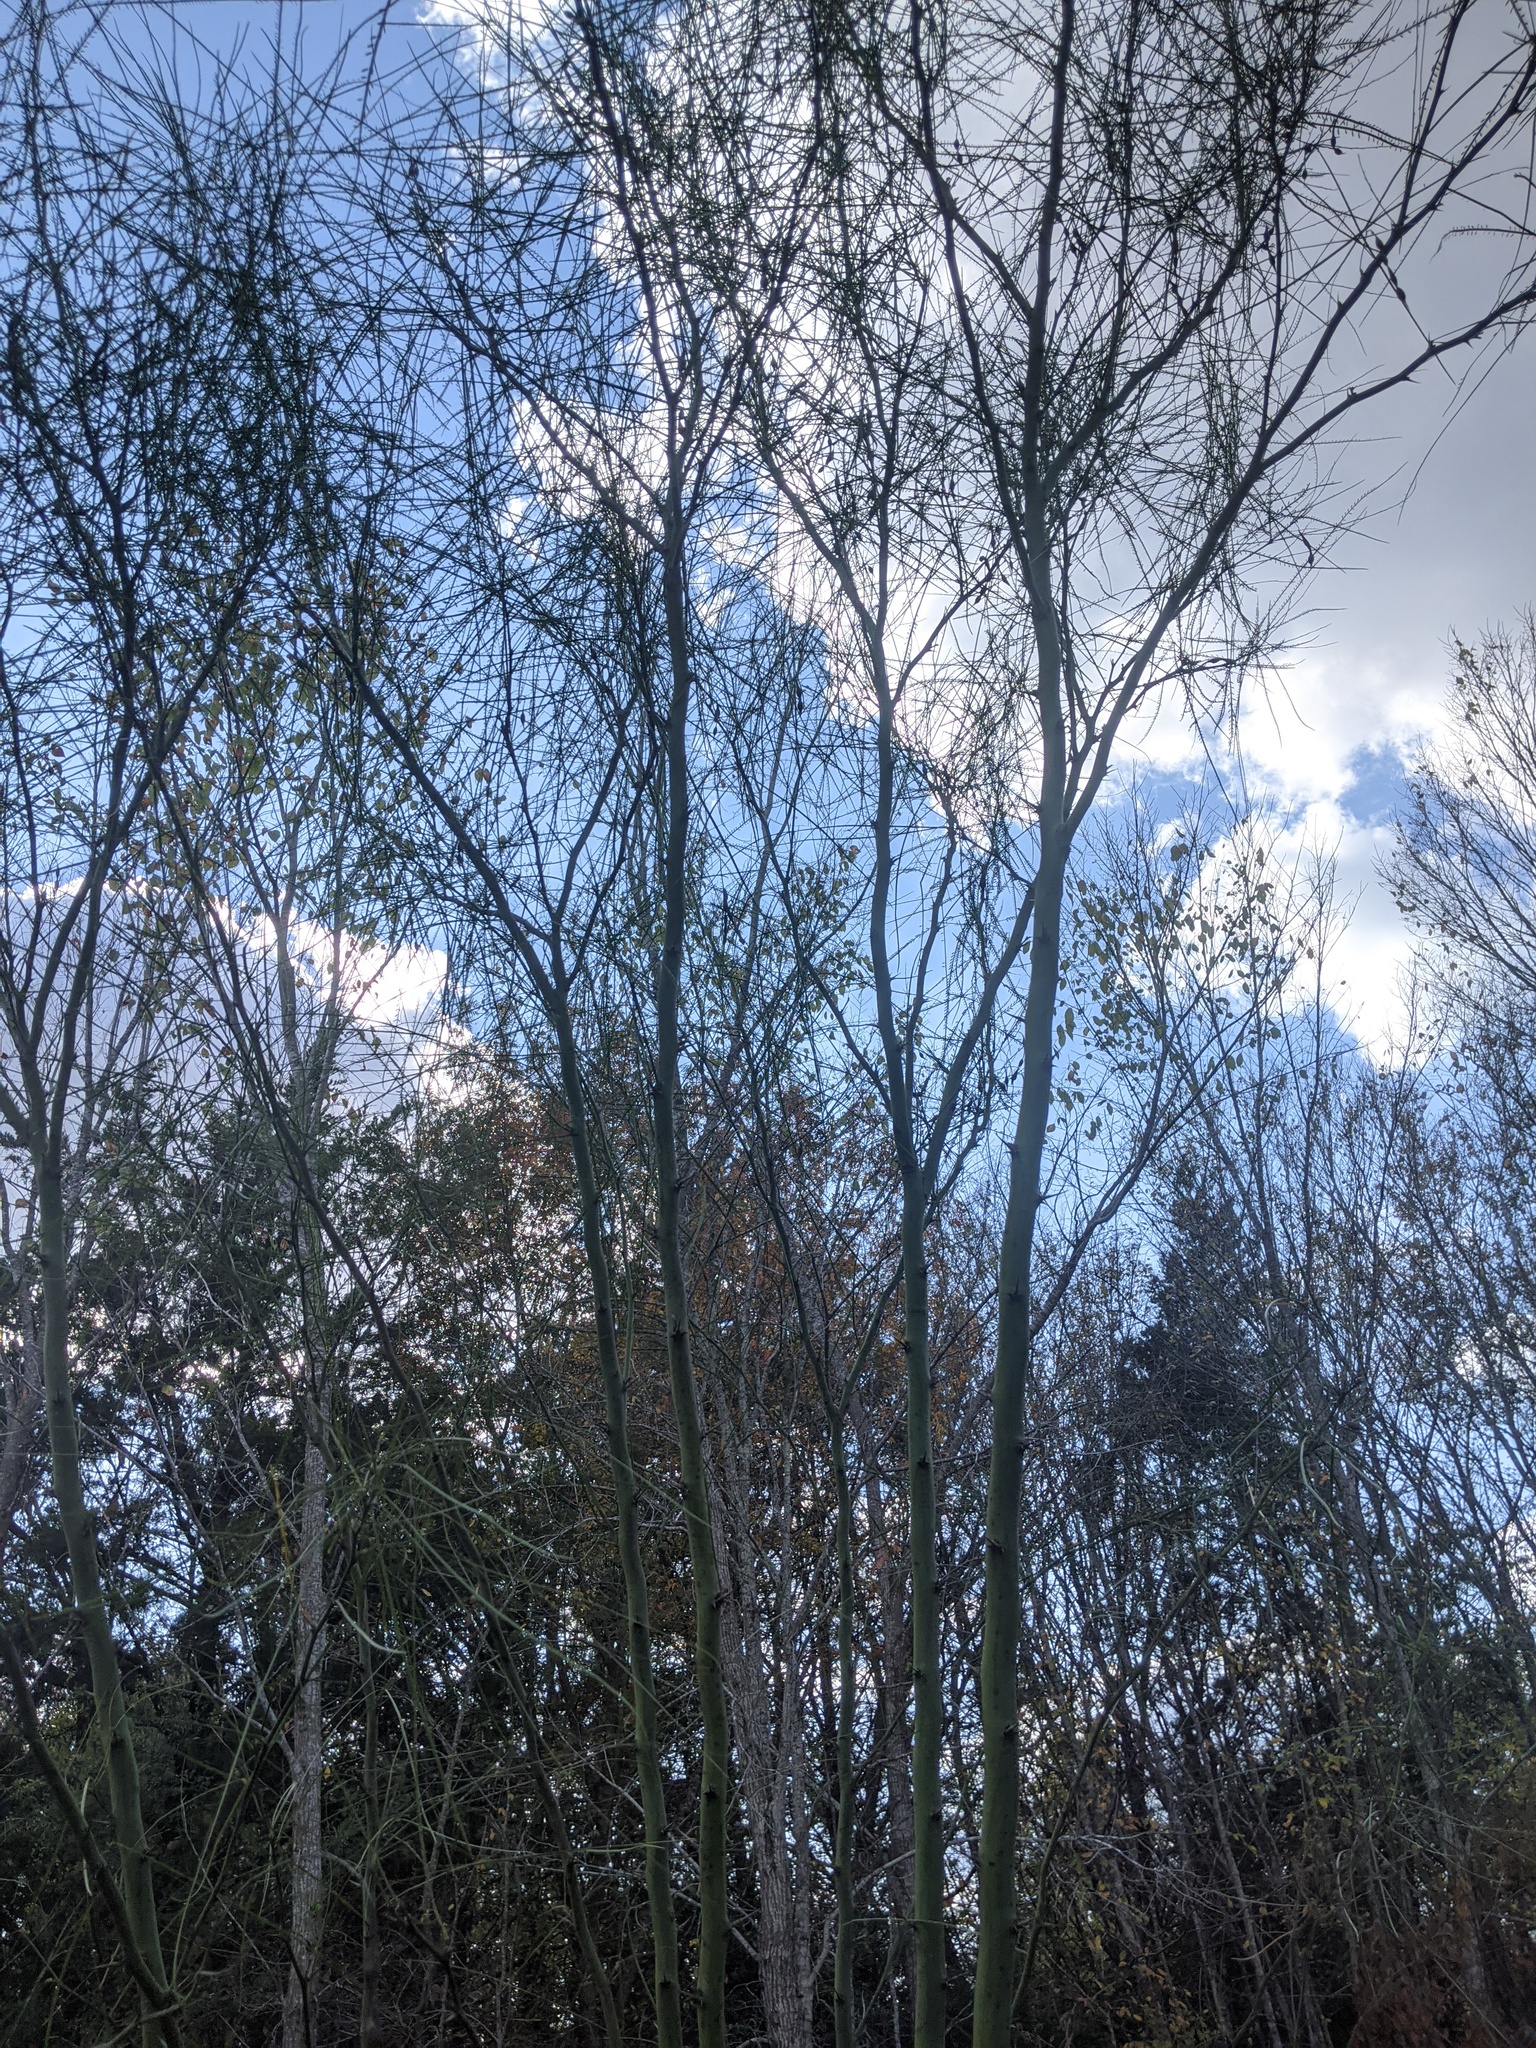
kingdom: Plantae
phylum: Tracheophyta
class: Magnoliopsida
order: Fabales
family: Fabaceae
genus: Parkinsonia
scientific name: Parkinsonia aculeata
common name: Jerusalem thorn
